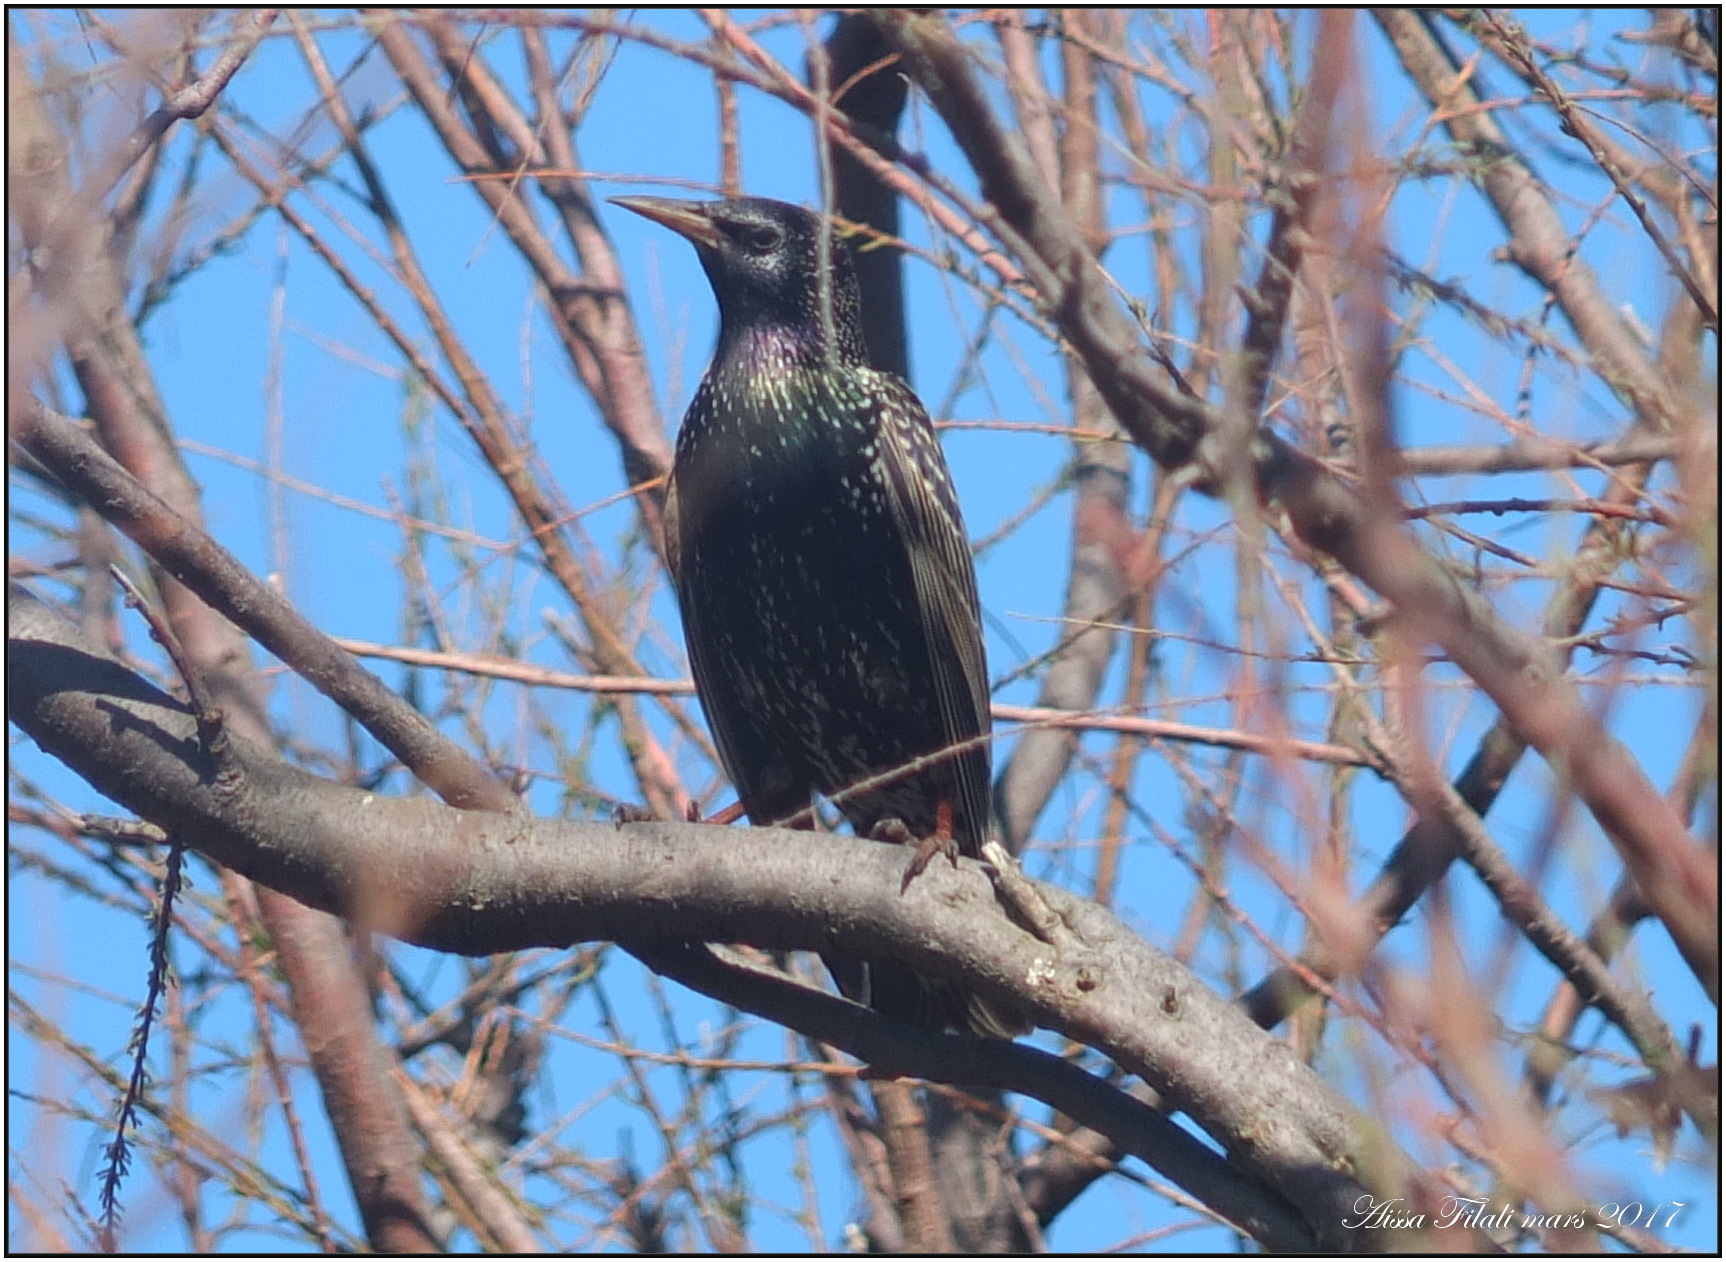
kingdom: Animalia
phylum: Chordata
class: Aves
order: Passeriformes
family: Sturnidae
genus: Sturnus
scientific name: Sturnus vulgaris
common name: Common starling
